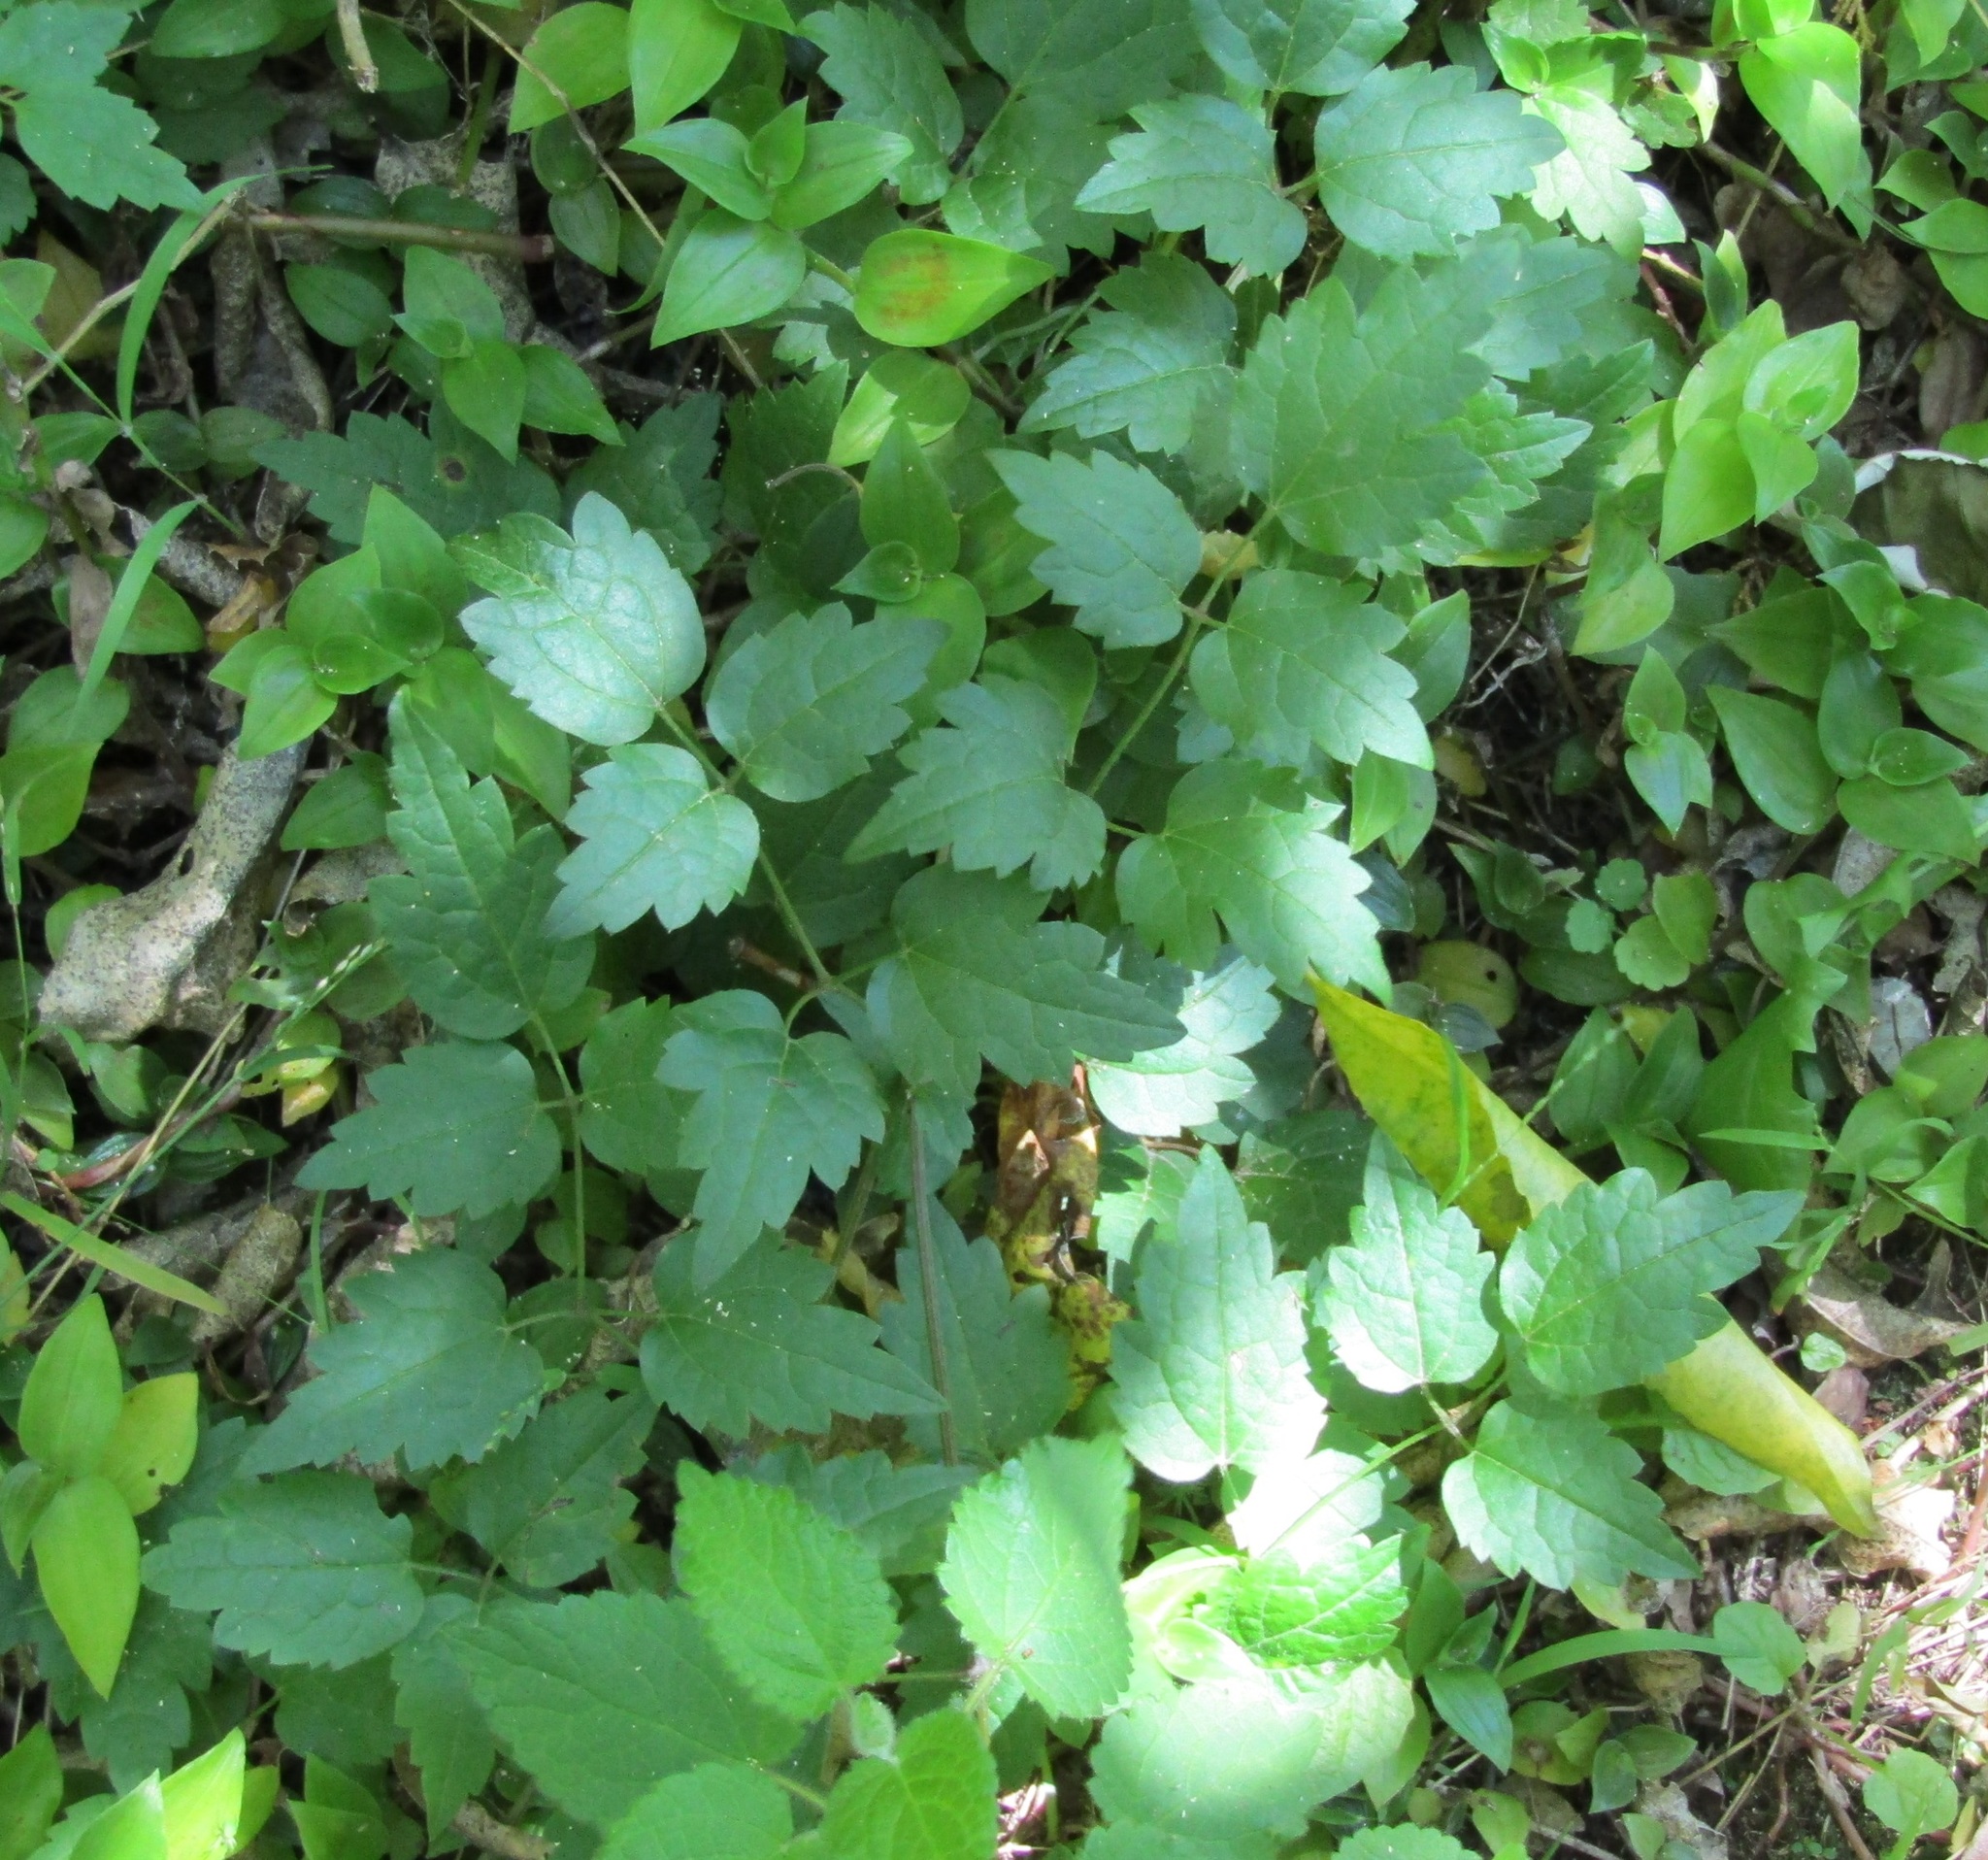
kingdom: Plantae
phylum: Tracheophyta
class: Magnoliopsida
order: Ranunculales
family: Ranunculaceae
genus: Clematis
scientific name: Clematis vitalba
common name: Evergreen clematis
